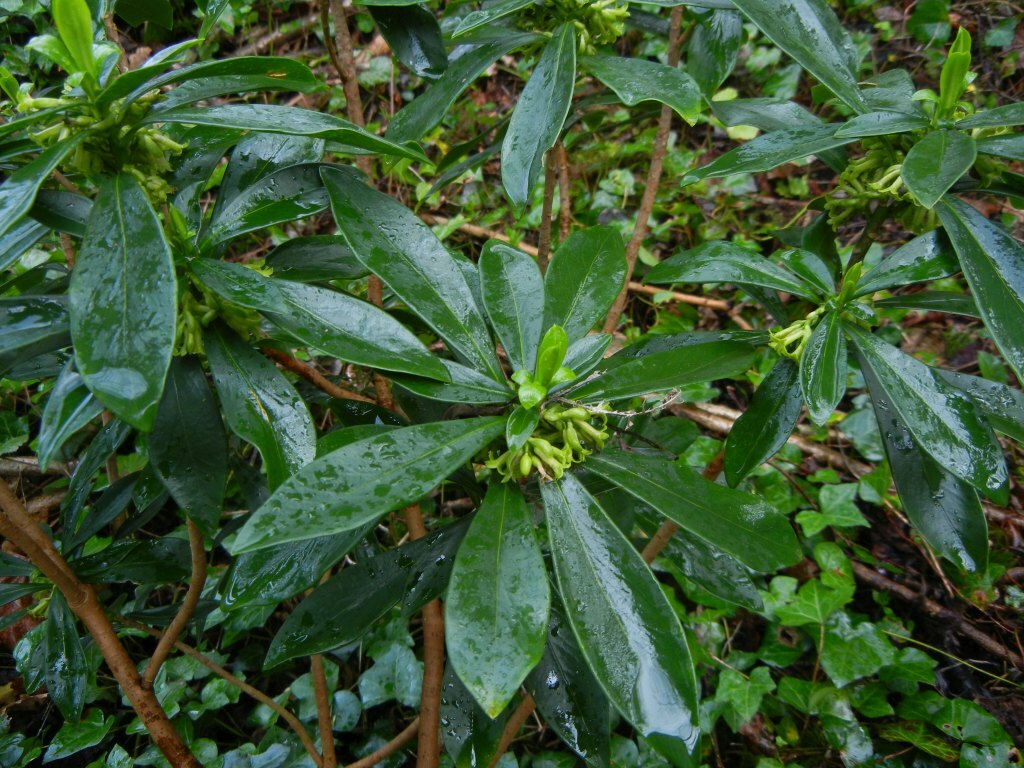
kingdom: Plantae
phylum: Tracheophyta
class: Magnoliopsida
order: Malvales
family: Thymelaeaceae
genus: Daphne
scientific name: Daphne laureola
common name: Spurge-laurel
